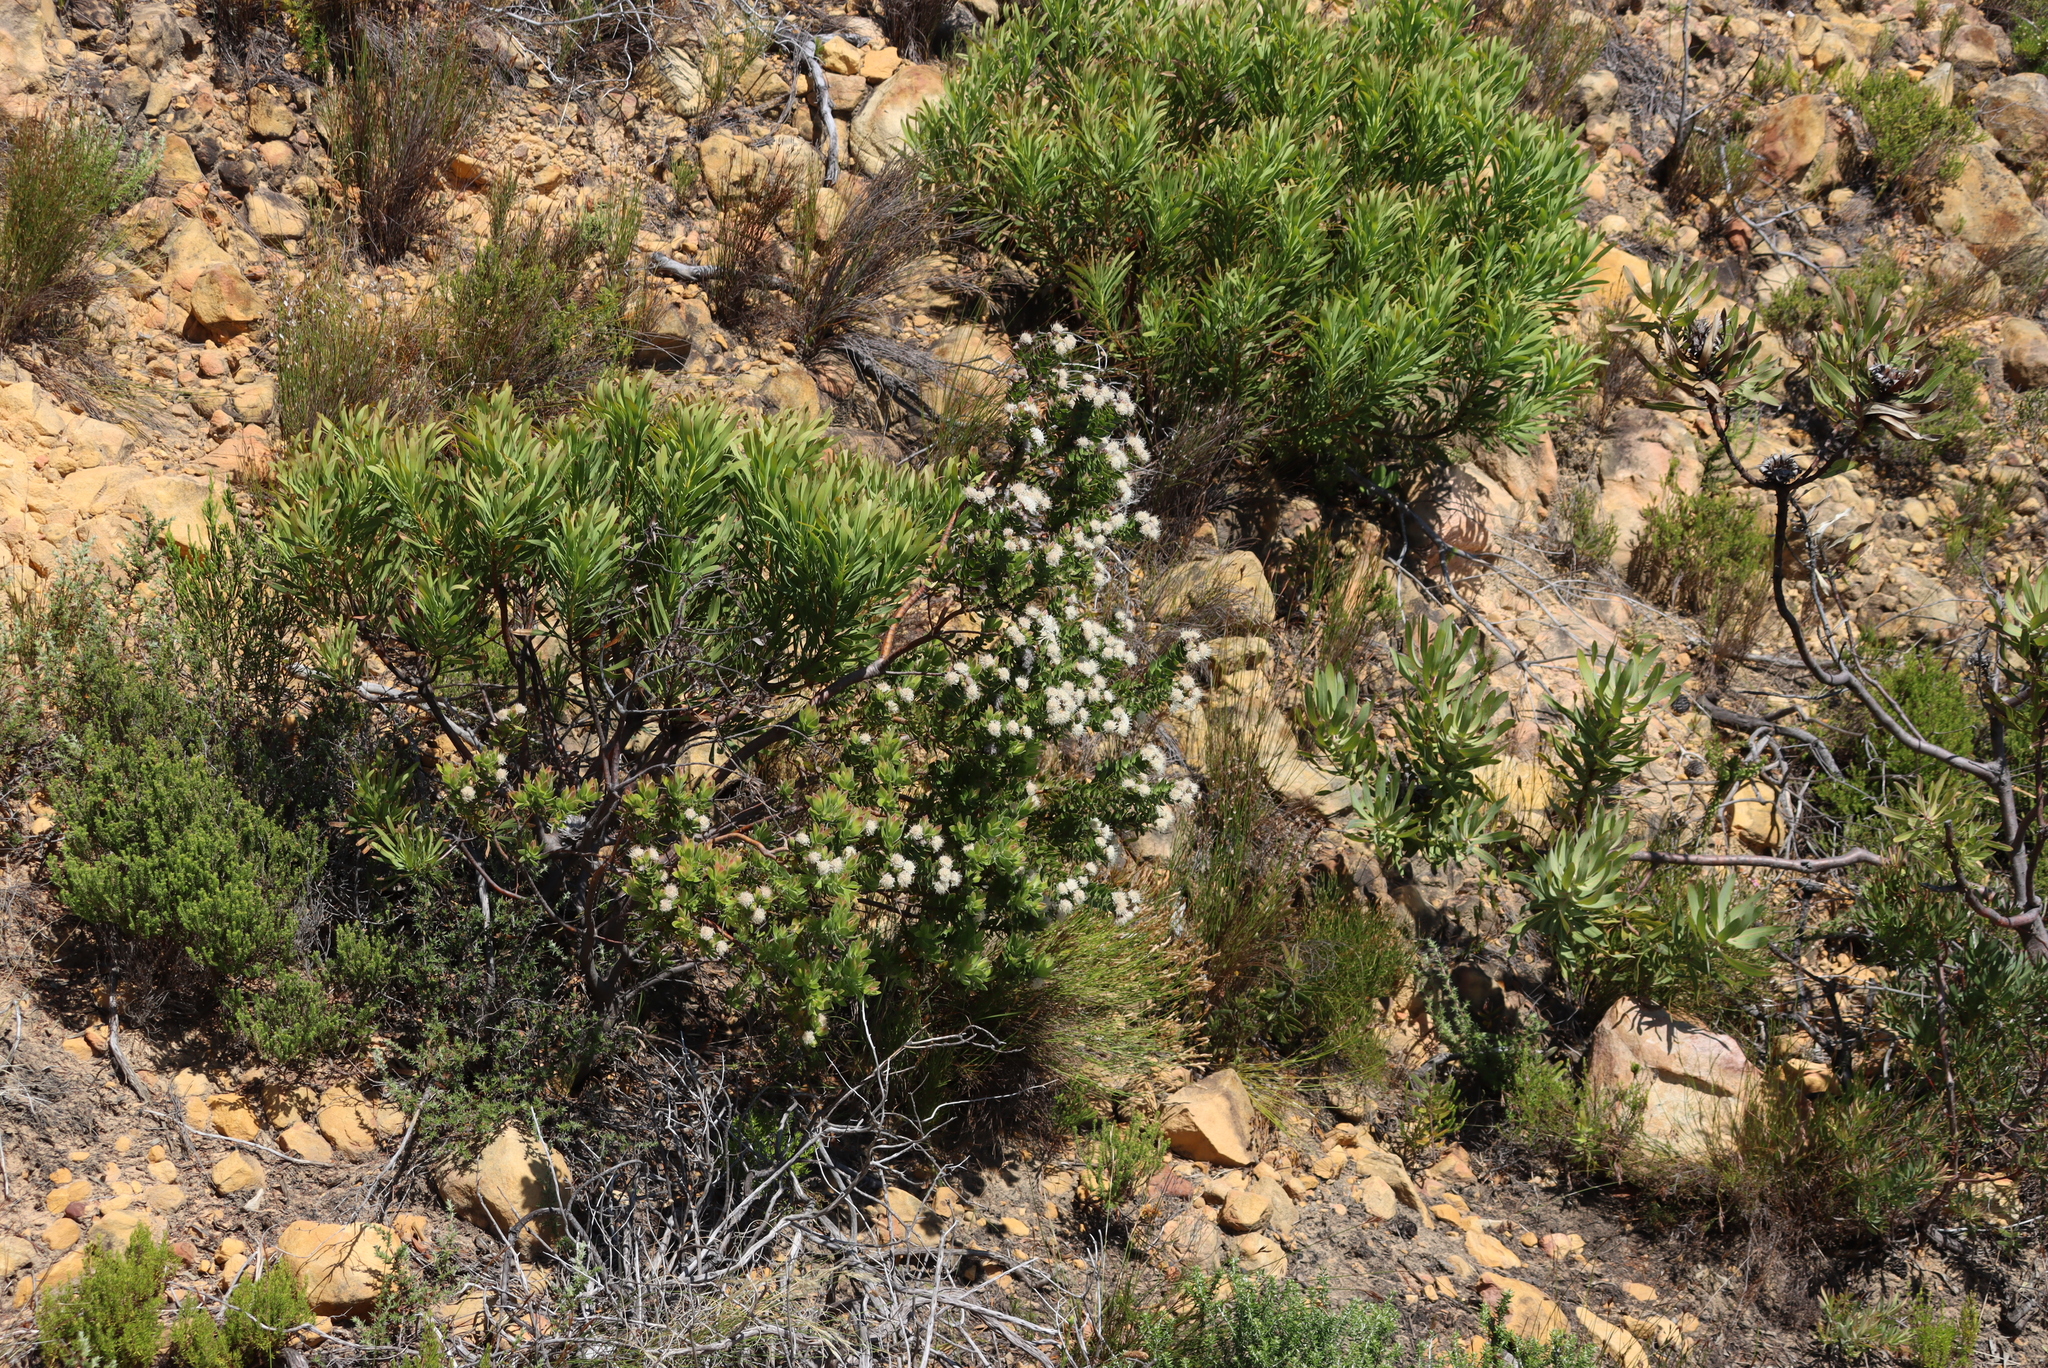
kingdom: Plantae
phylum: Tracheophyta
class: Magnoliopsida
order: Proteales
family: Proteaceae
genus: Leucospermum
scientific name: Leucospermum bolusii
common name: Gordon's bay pincushion
